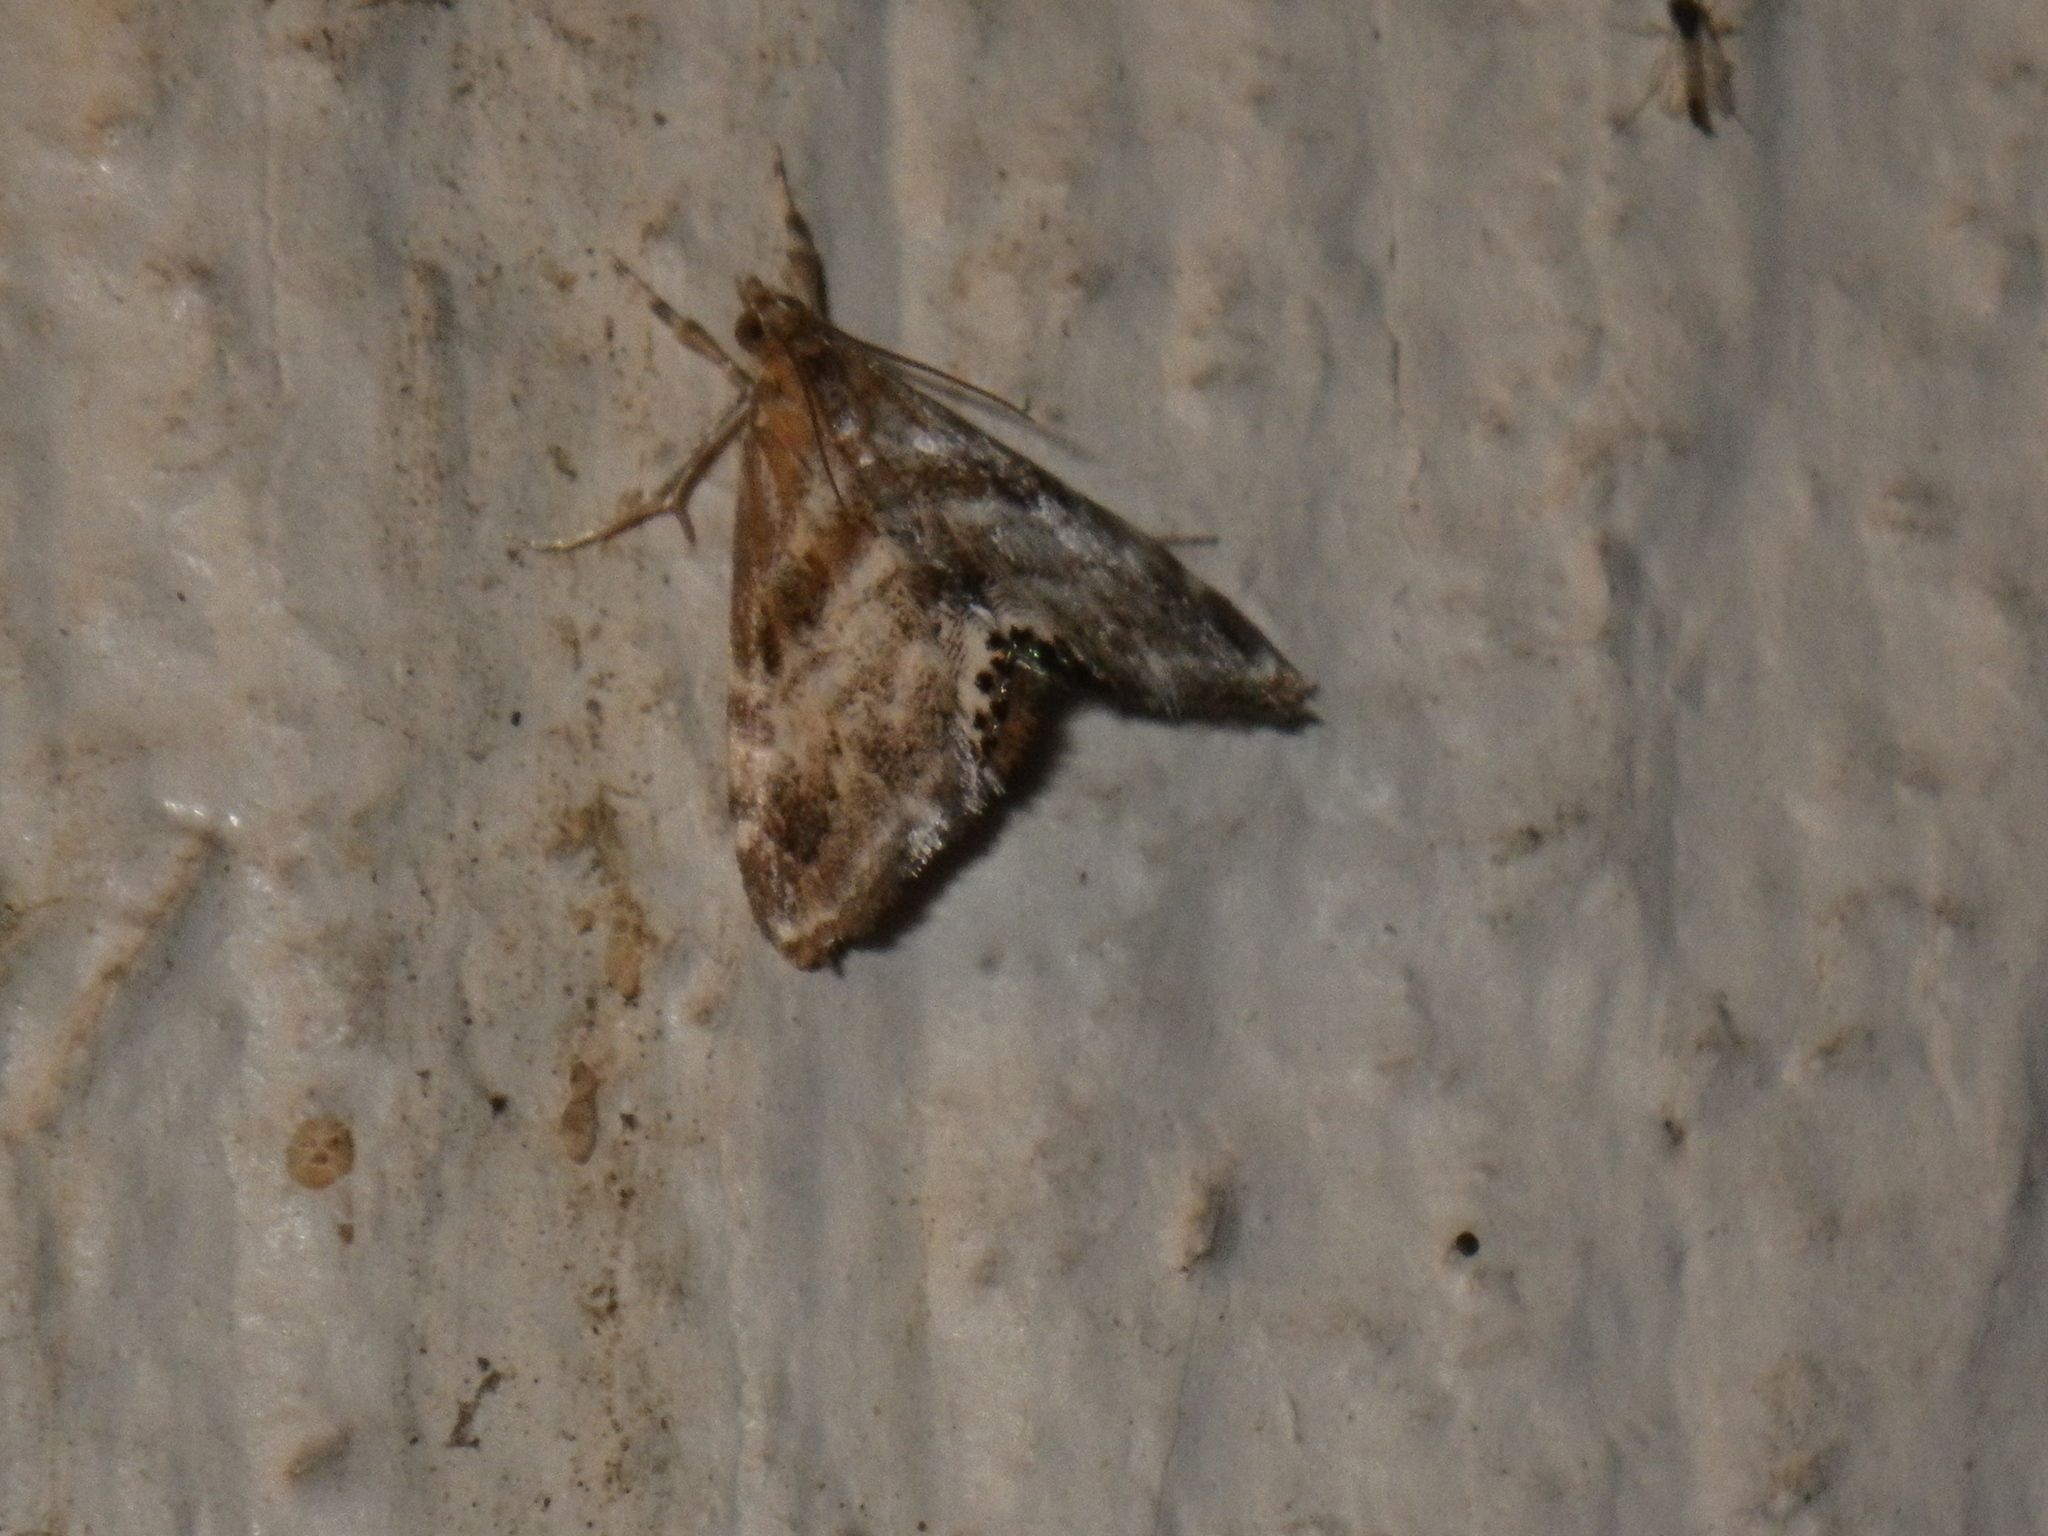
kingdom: Animalia
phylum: Arthropoda
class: Insecta
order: Lepidoptera
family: Crambidae
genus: Dicymolomia
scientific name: Dicymolomia metalliferalis
